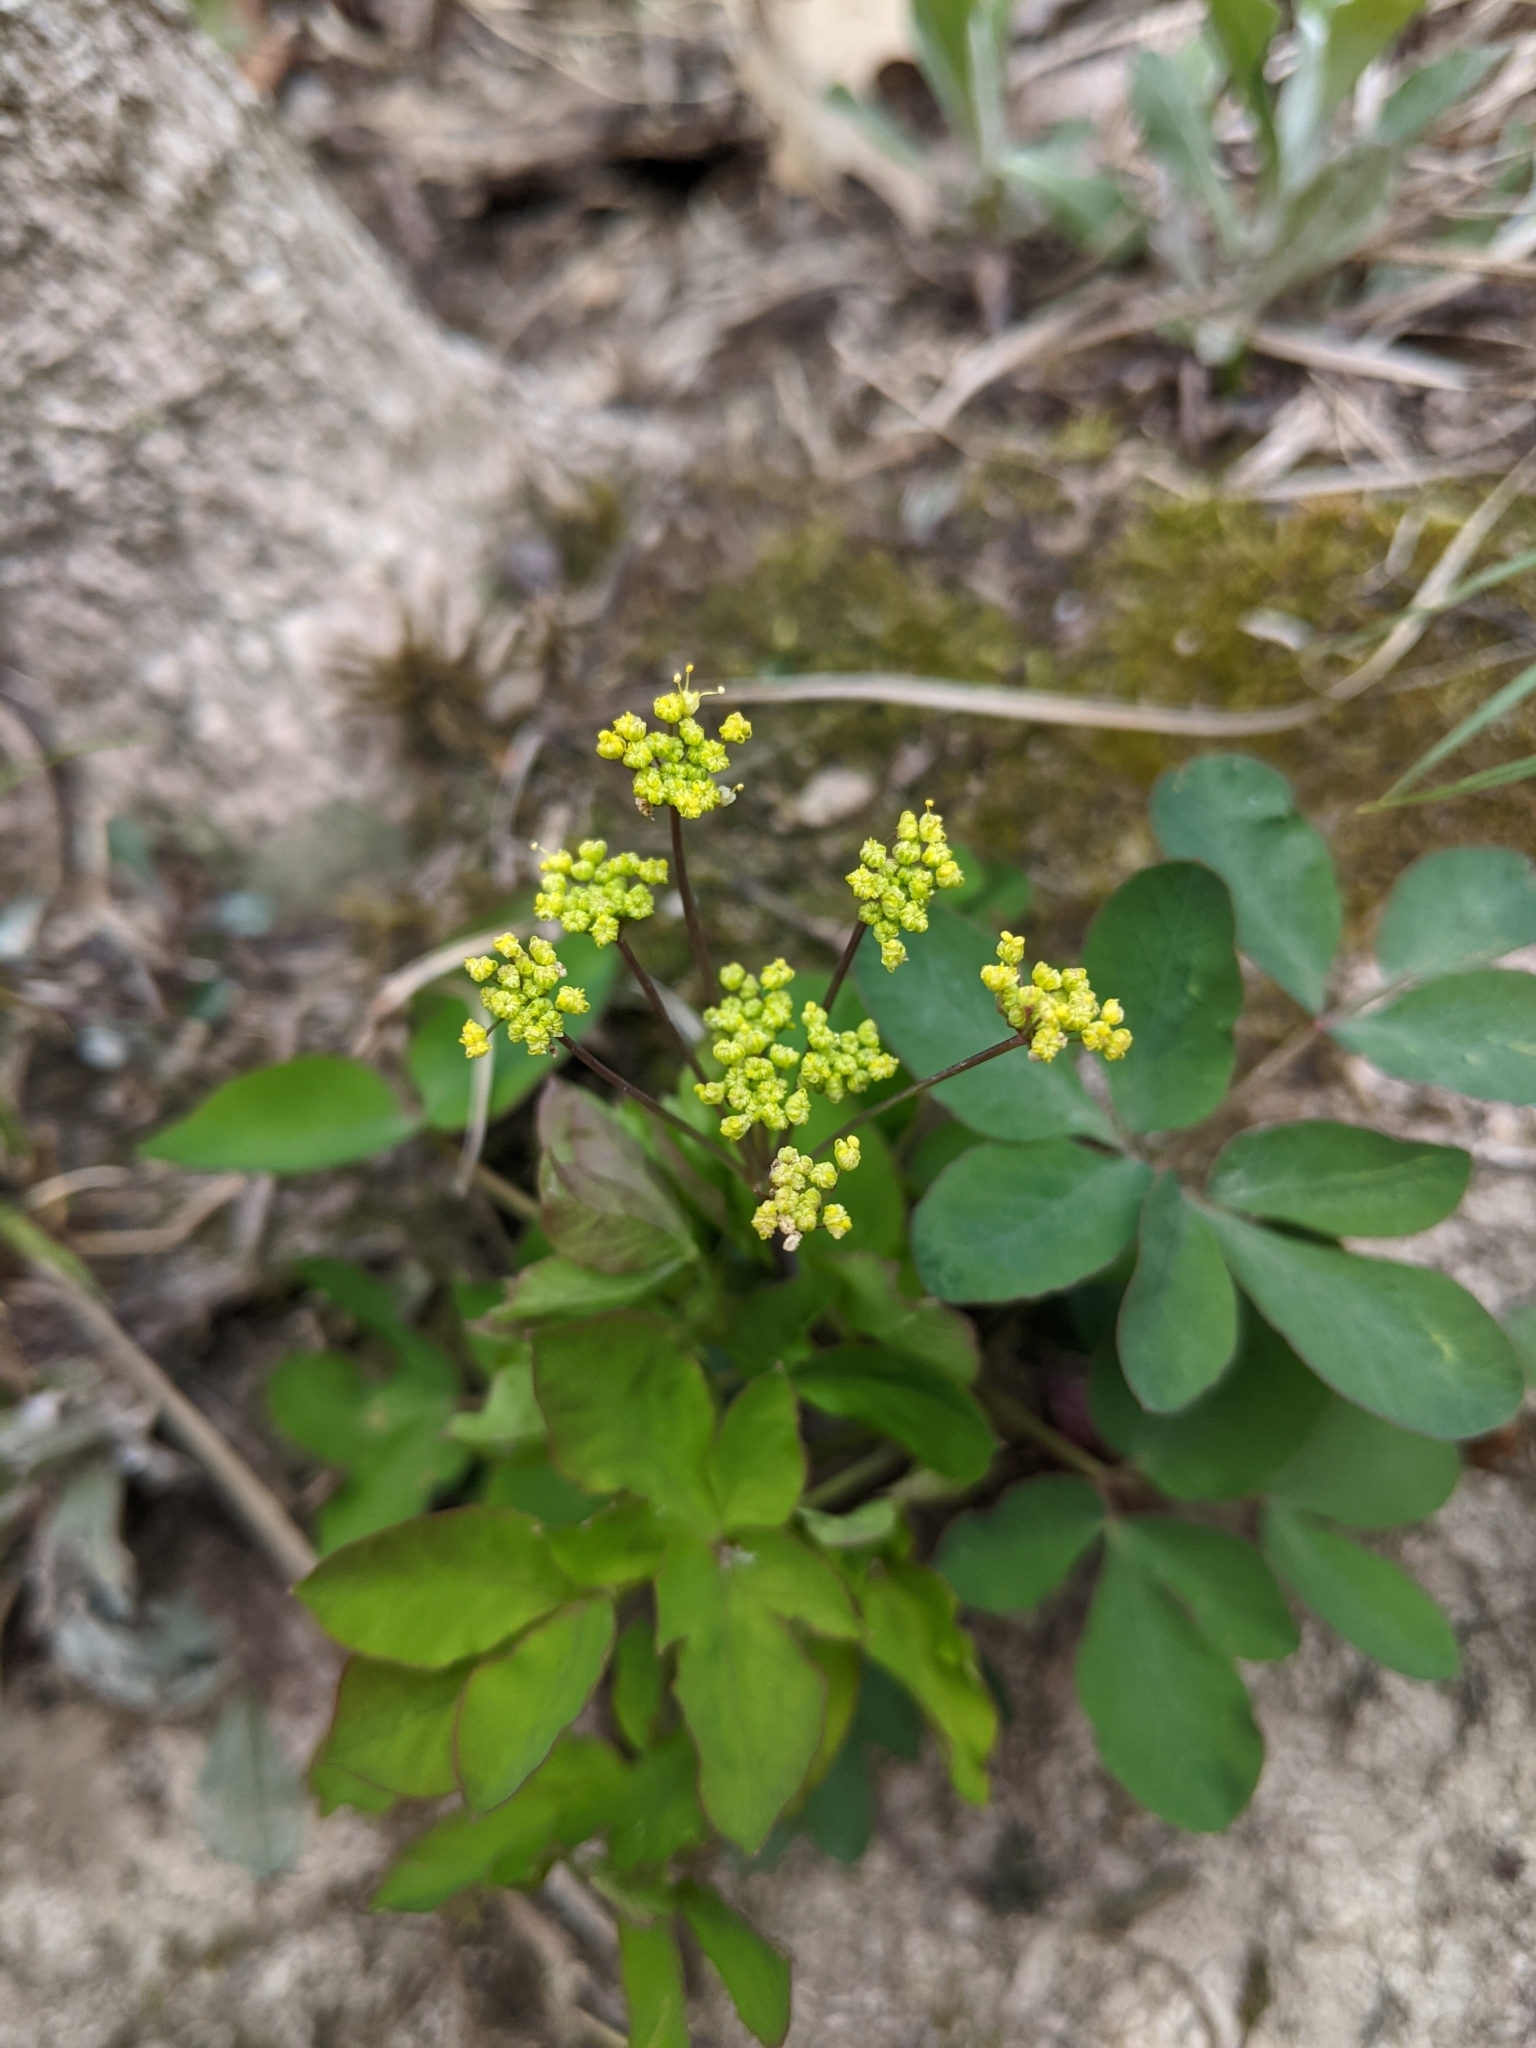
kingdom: Plantae
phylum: Tracheophyta
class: Magnoliopsida
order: Apiales
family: Apiaceae
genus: Taenidia
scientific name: Taenidia integerrima
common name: Golden alexander
